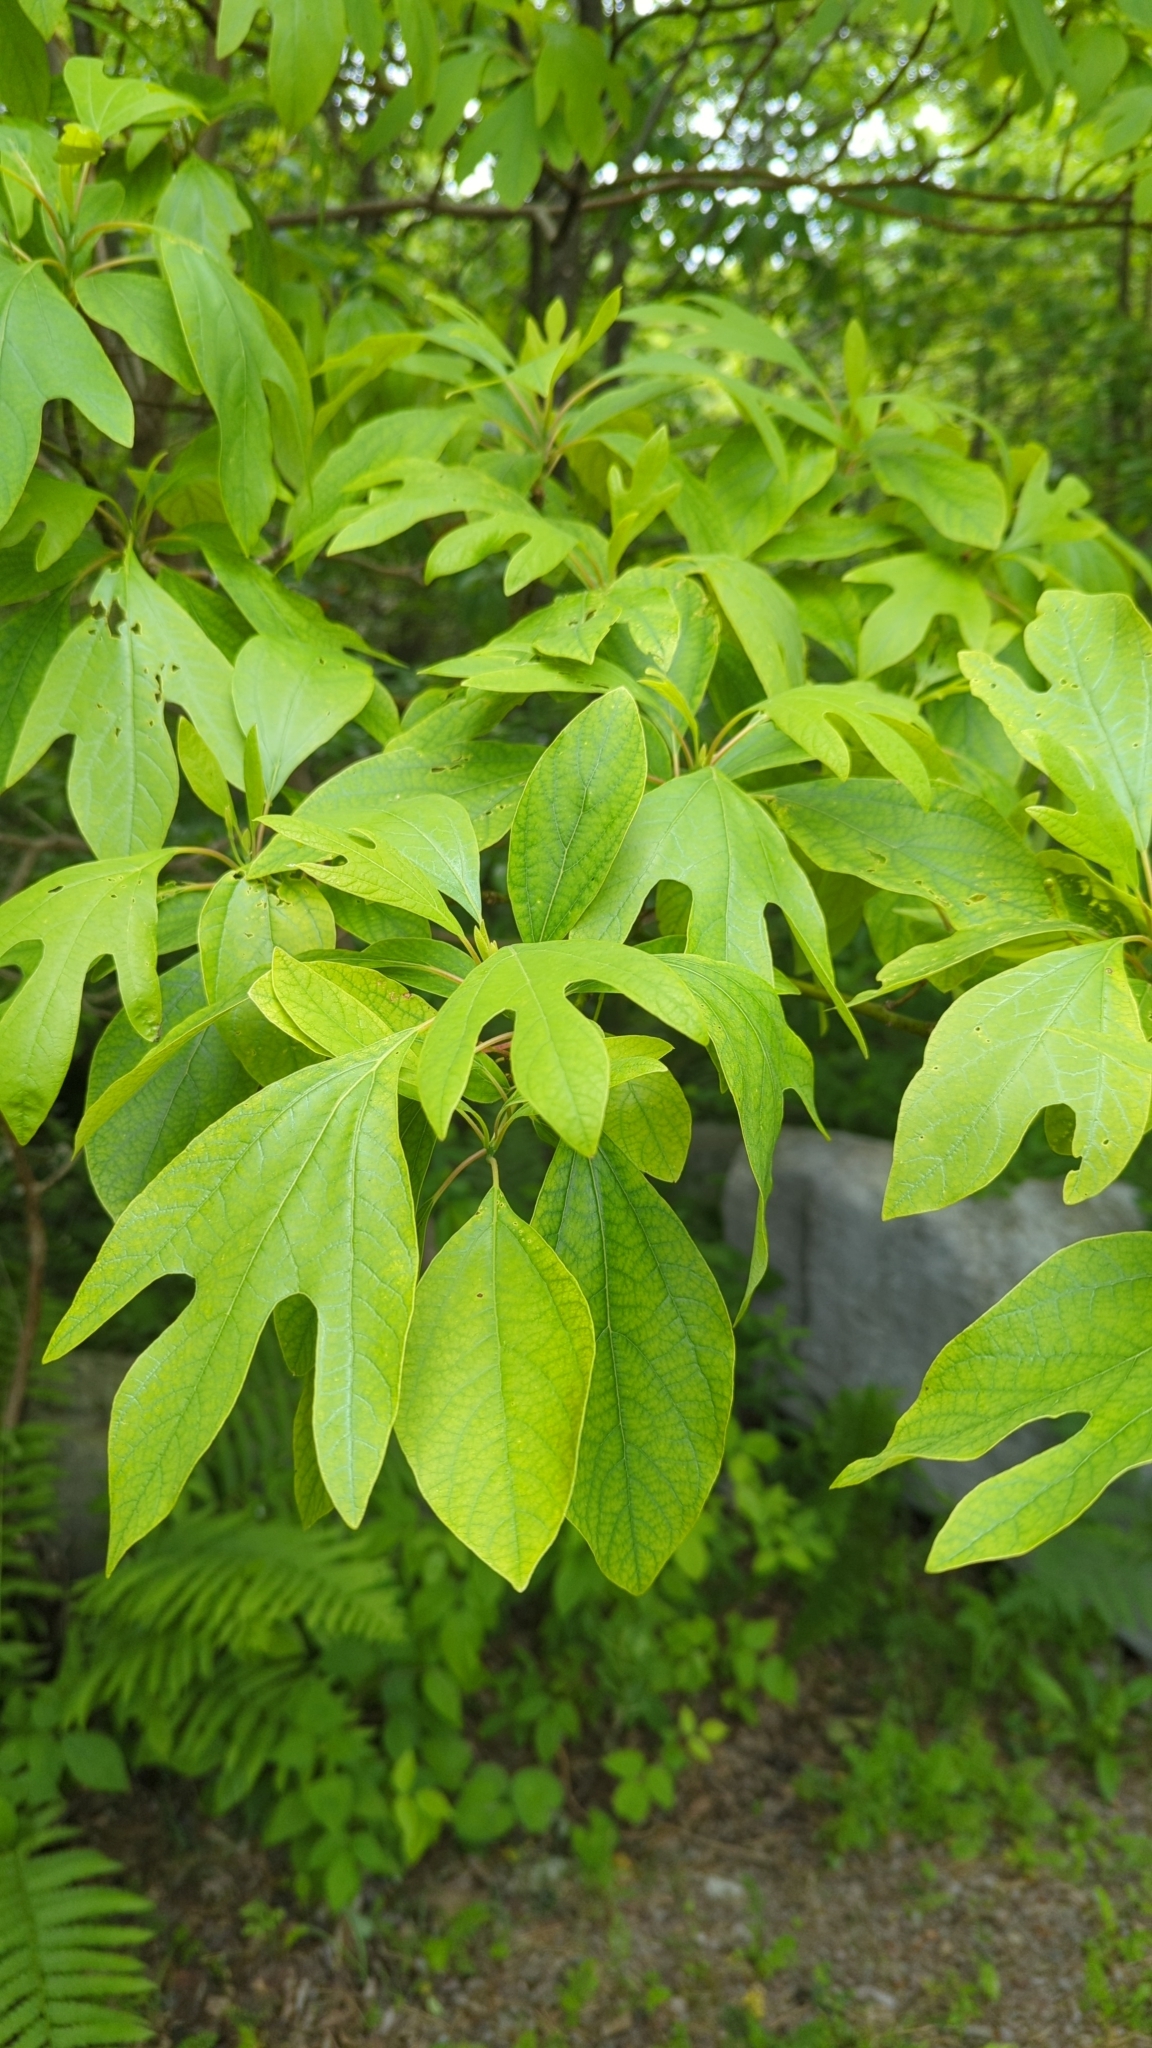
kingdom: Plantae
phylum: Tracheophyta
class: Magnoliopsida
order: Laurales
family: Lauraceae
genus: Sassafras
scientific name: Sassafras albidum
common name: Sassafras
